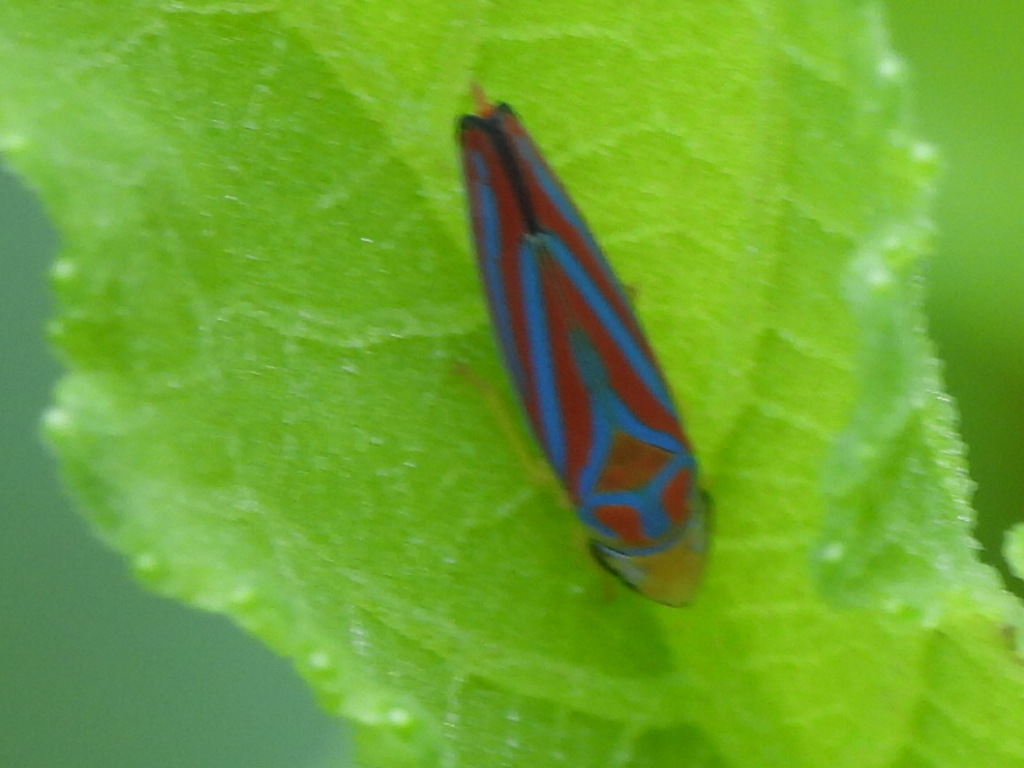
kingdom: Animalia
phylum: Arthropoda
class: Insecta
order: Hemiptera
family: Cicadellidae
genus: Graphocephala
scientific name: Graphocephala coccinea
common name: Candy-striped leafhopper
